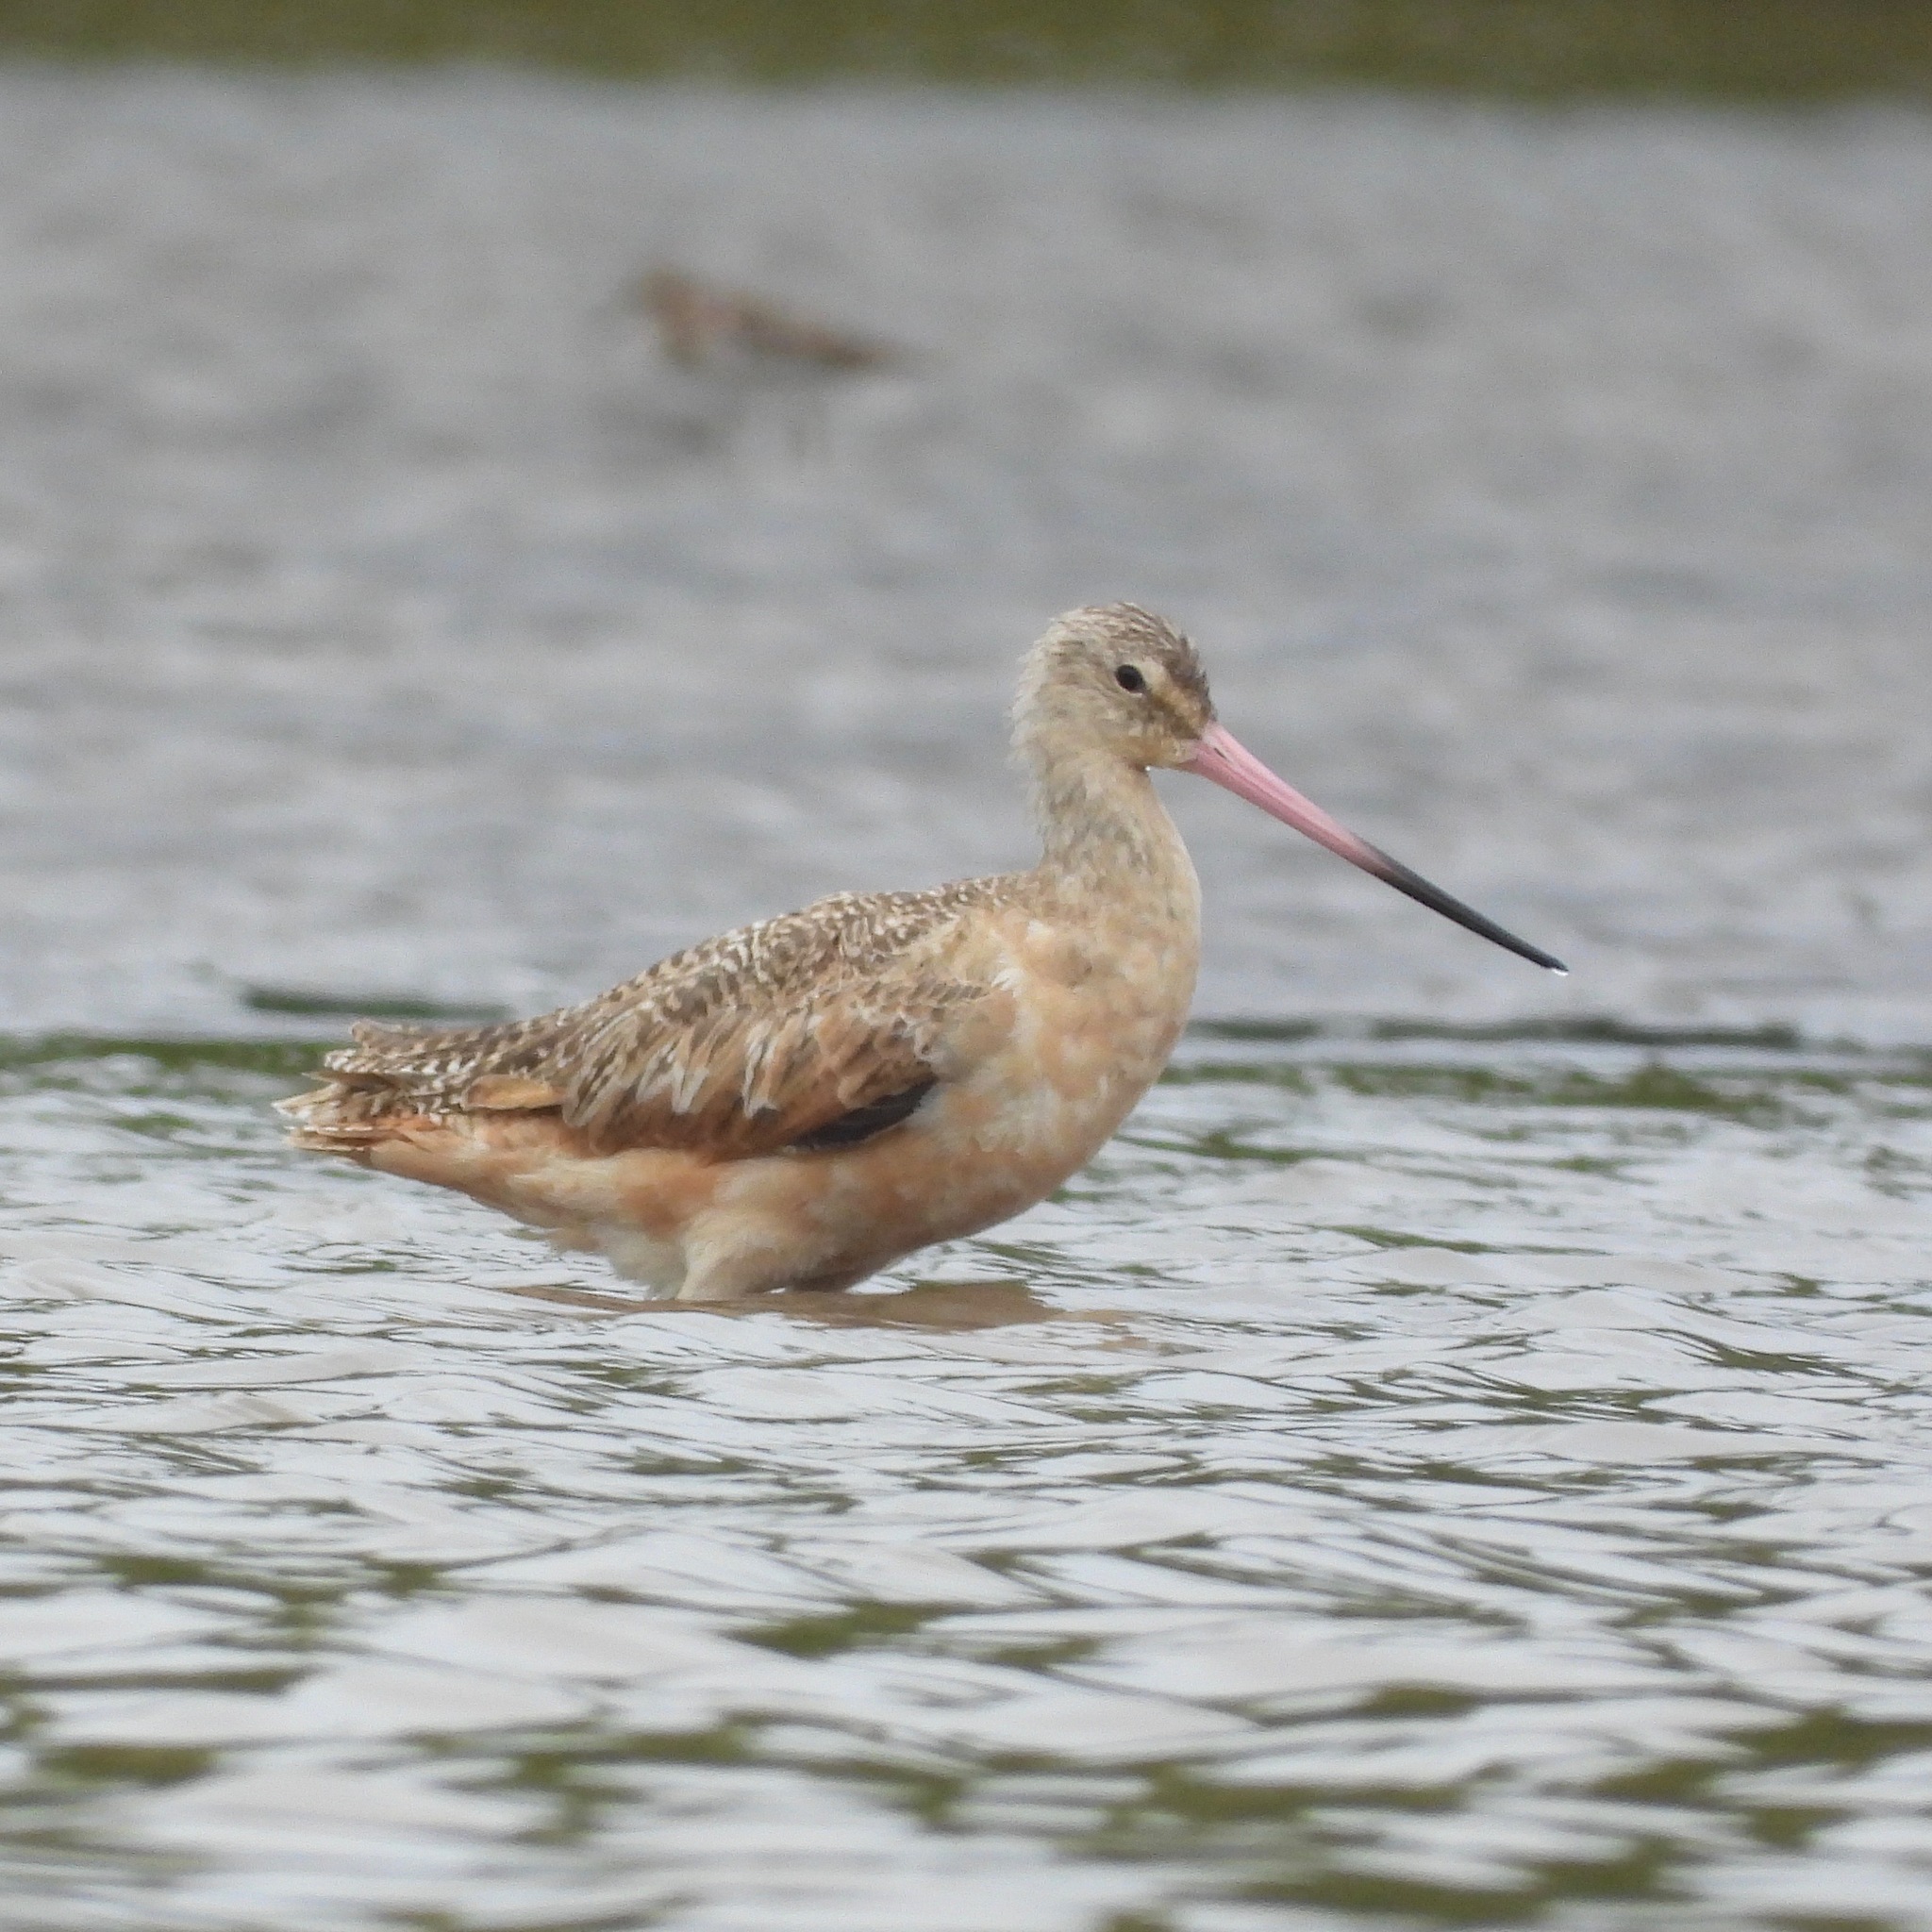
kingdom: Animalia
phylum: Chordata
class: Aves
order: Charadriiformes
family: Scolopacidae
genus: Limosa
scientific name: Limosa fedoa
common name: Marbled godwit
